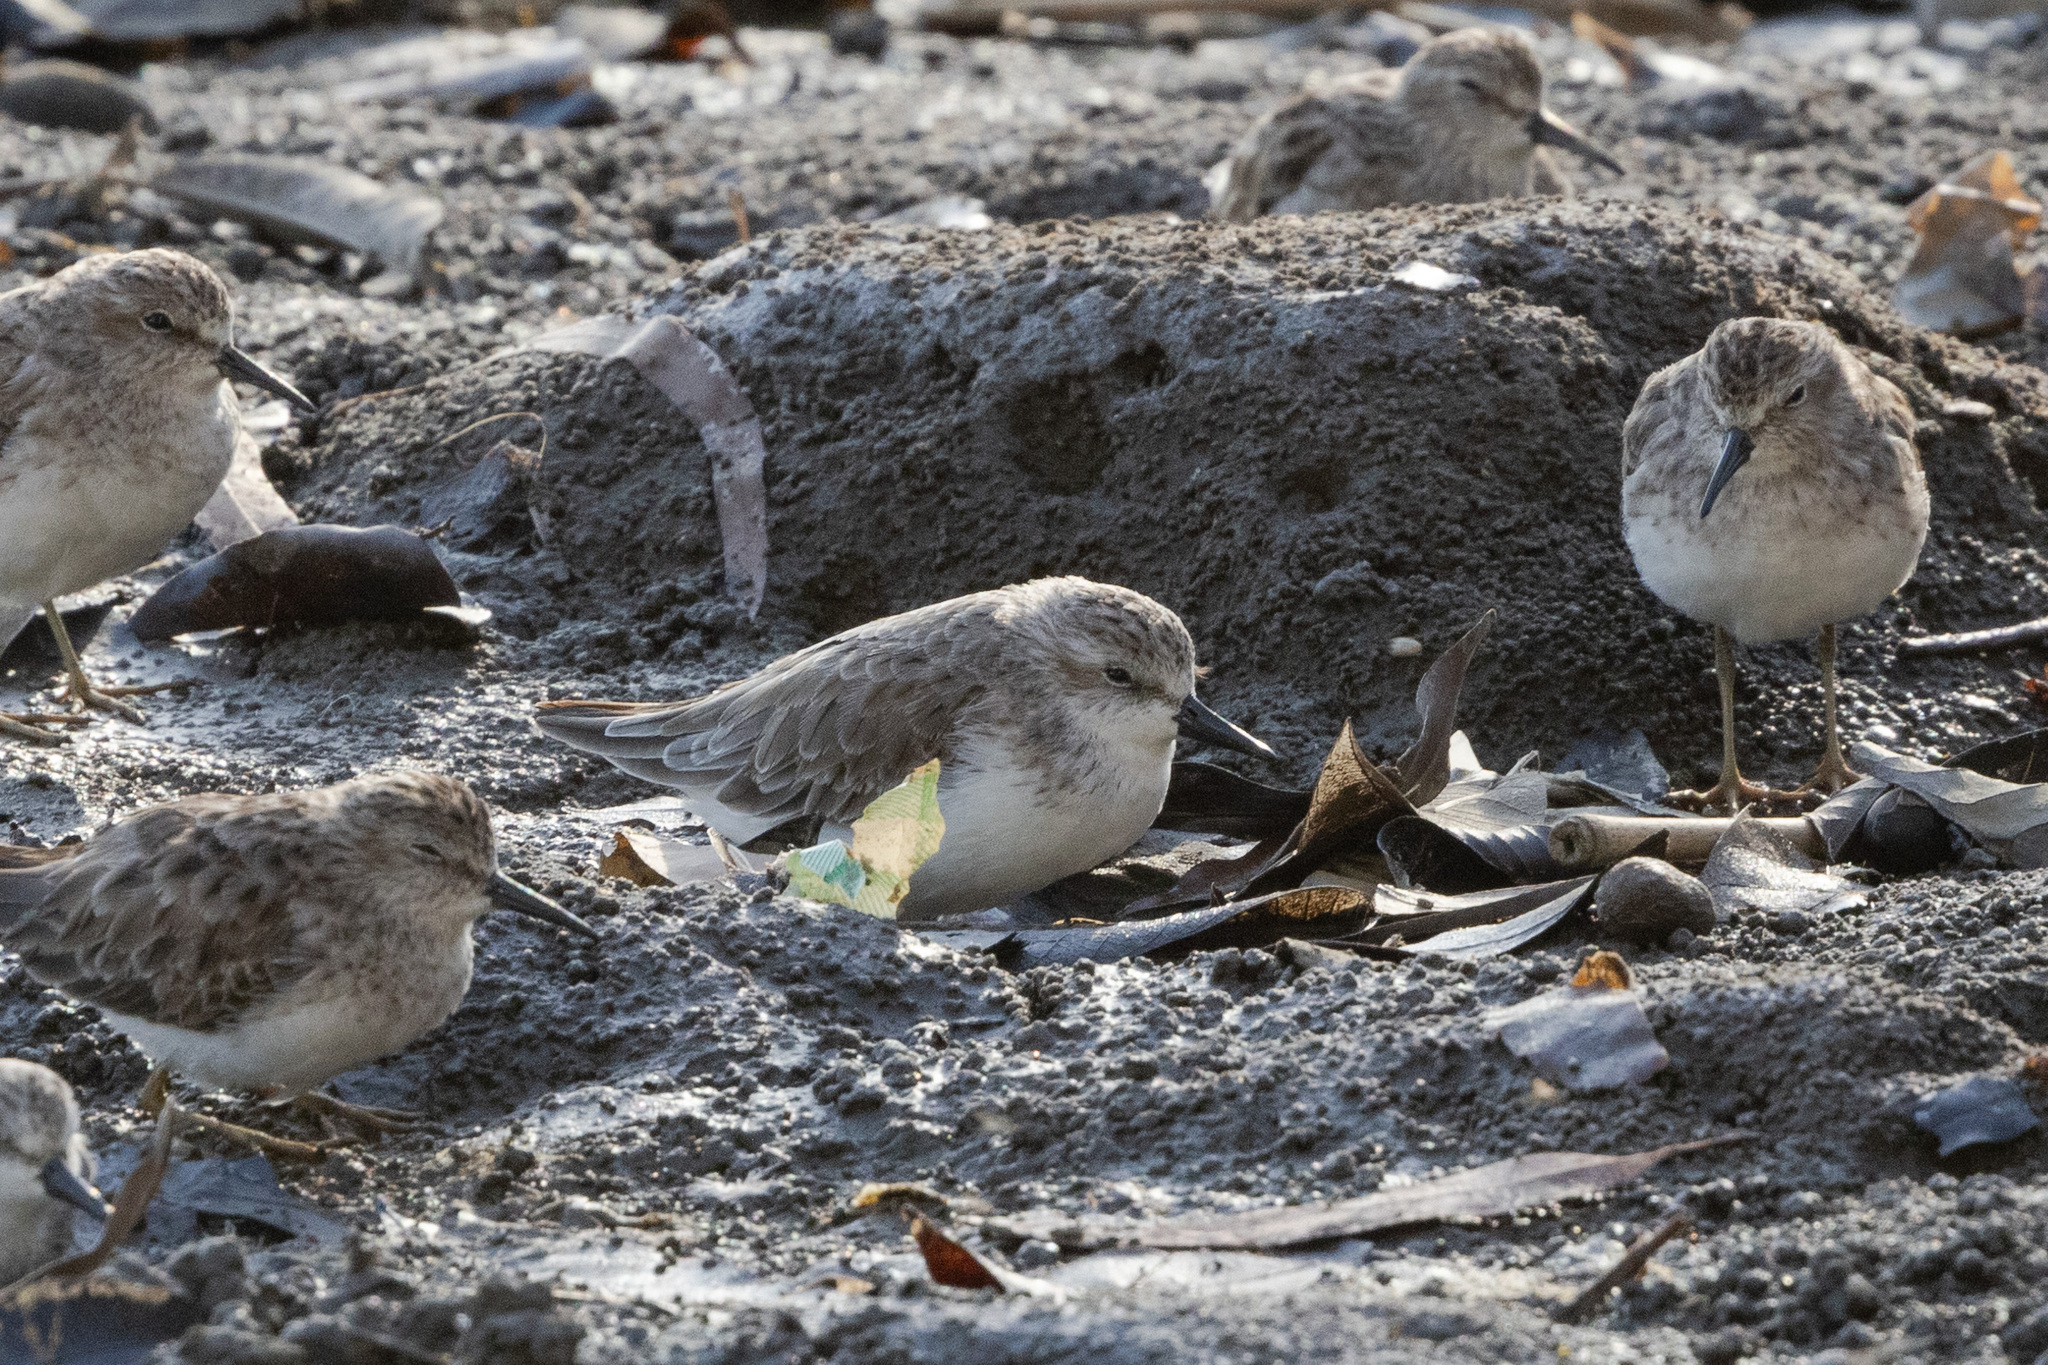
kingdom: Animalia
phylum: Chordata
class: Aves
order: Charadriiformes
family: Scolopacidae
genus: Calidris
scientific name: Calidris pusilla
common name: Semipalmated sandpiper
